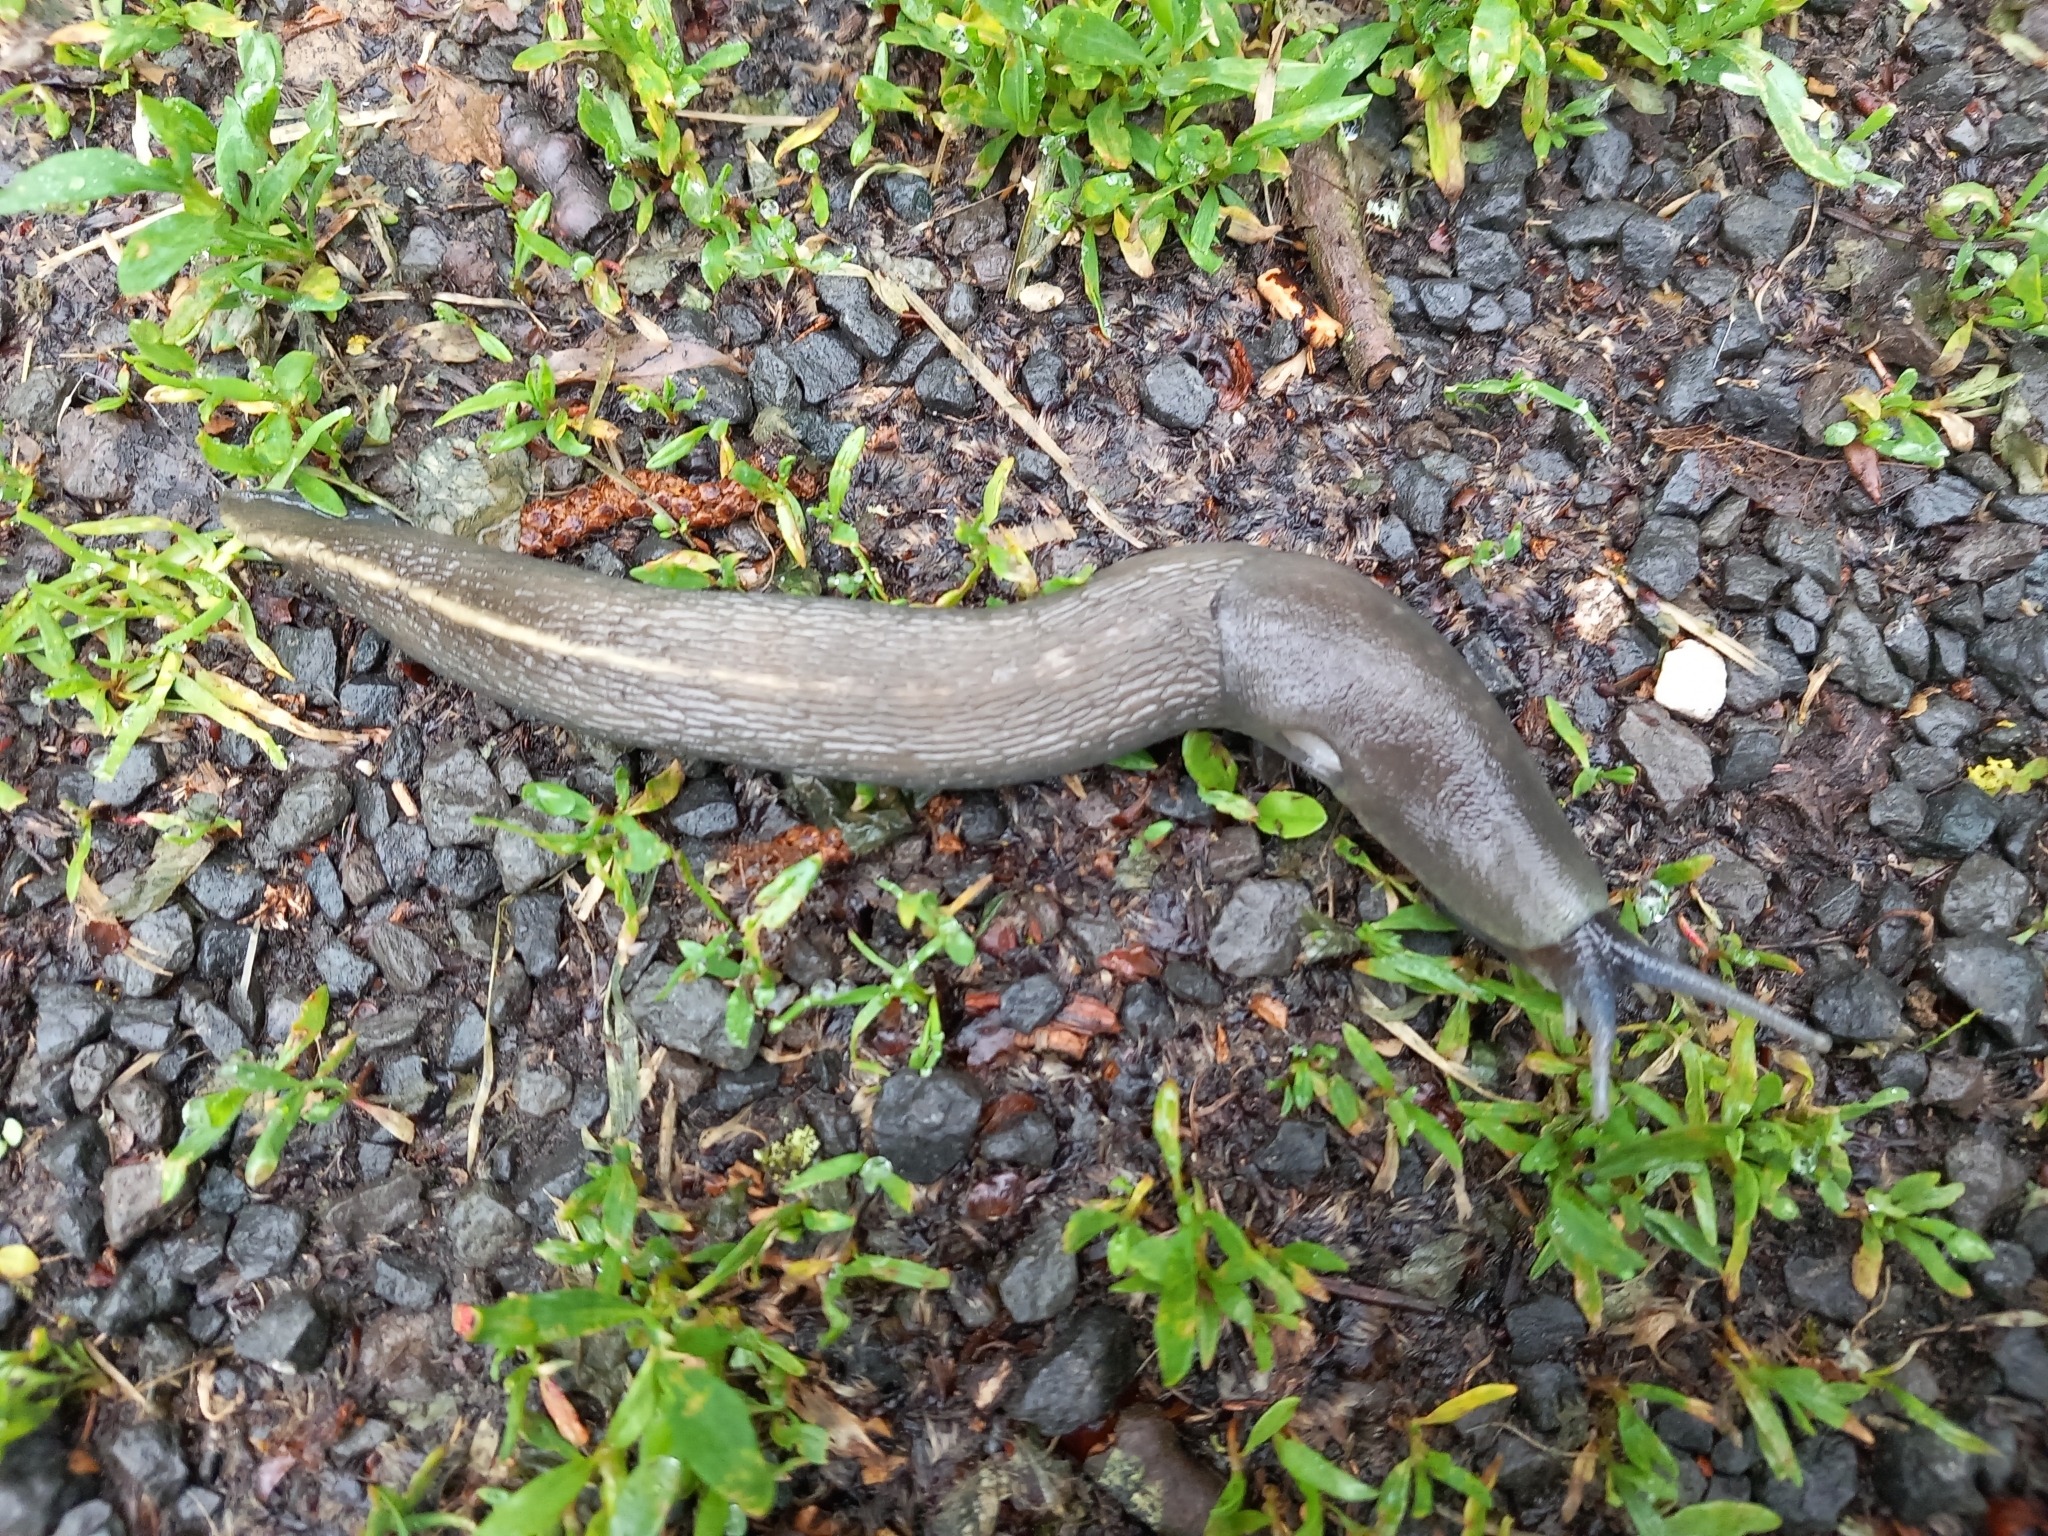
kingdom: Animalia
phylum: Mollusca
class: Gastropoda
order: Stylommatophora
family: Limacidae
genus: Limax
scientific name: Limax cinereoniger
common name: Ash-black slug
